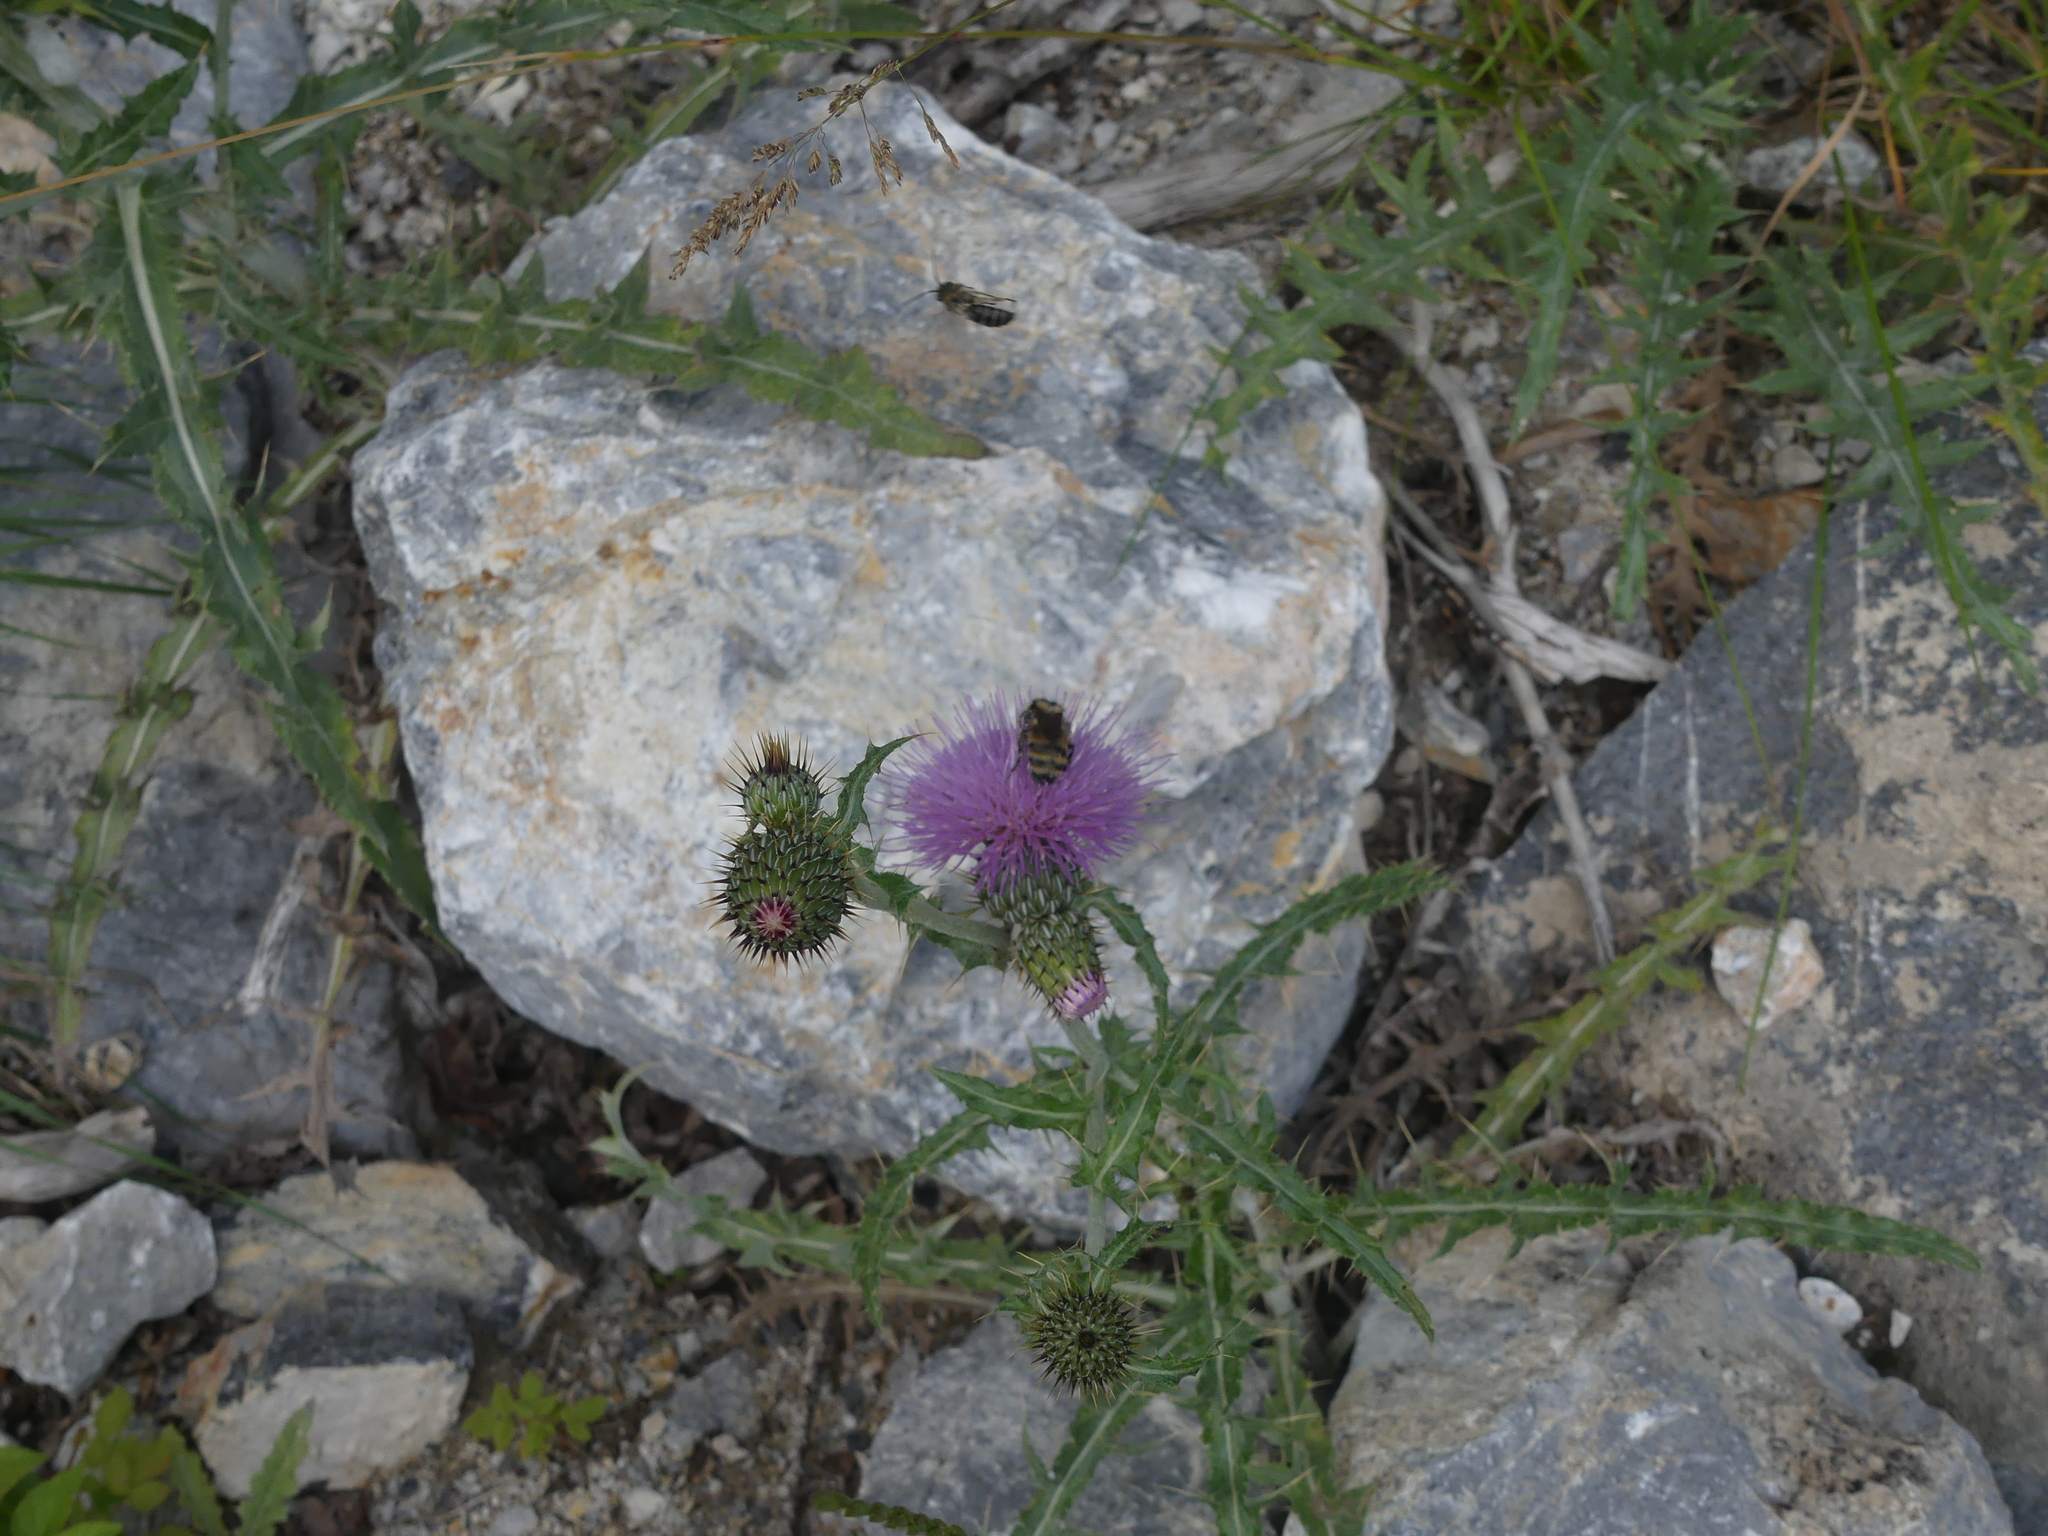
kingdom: Animalia
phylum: Arthropoda
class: Insecta
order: Hymenoptera
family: Apidae
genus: Bombus
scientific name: Bombus appositus
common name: White-shouldered bumble bee
